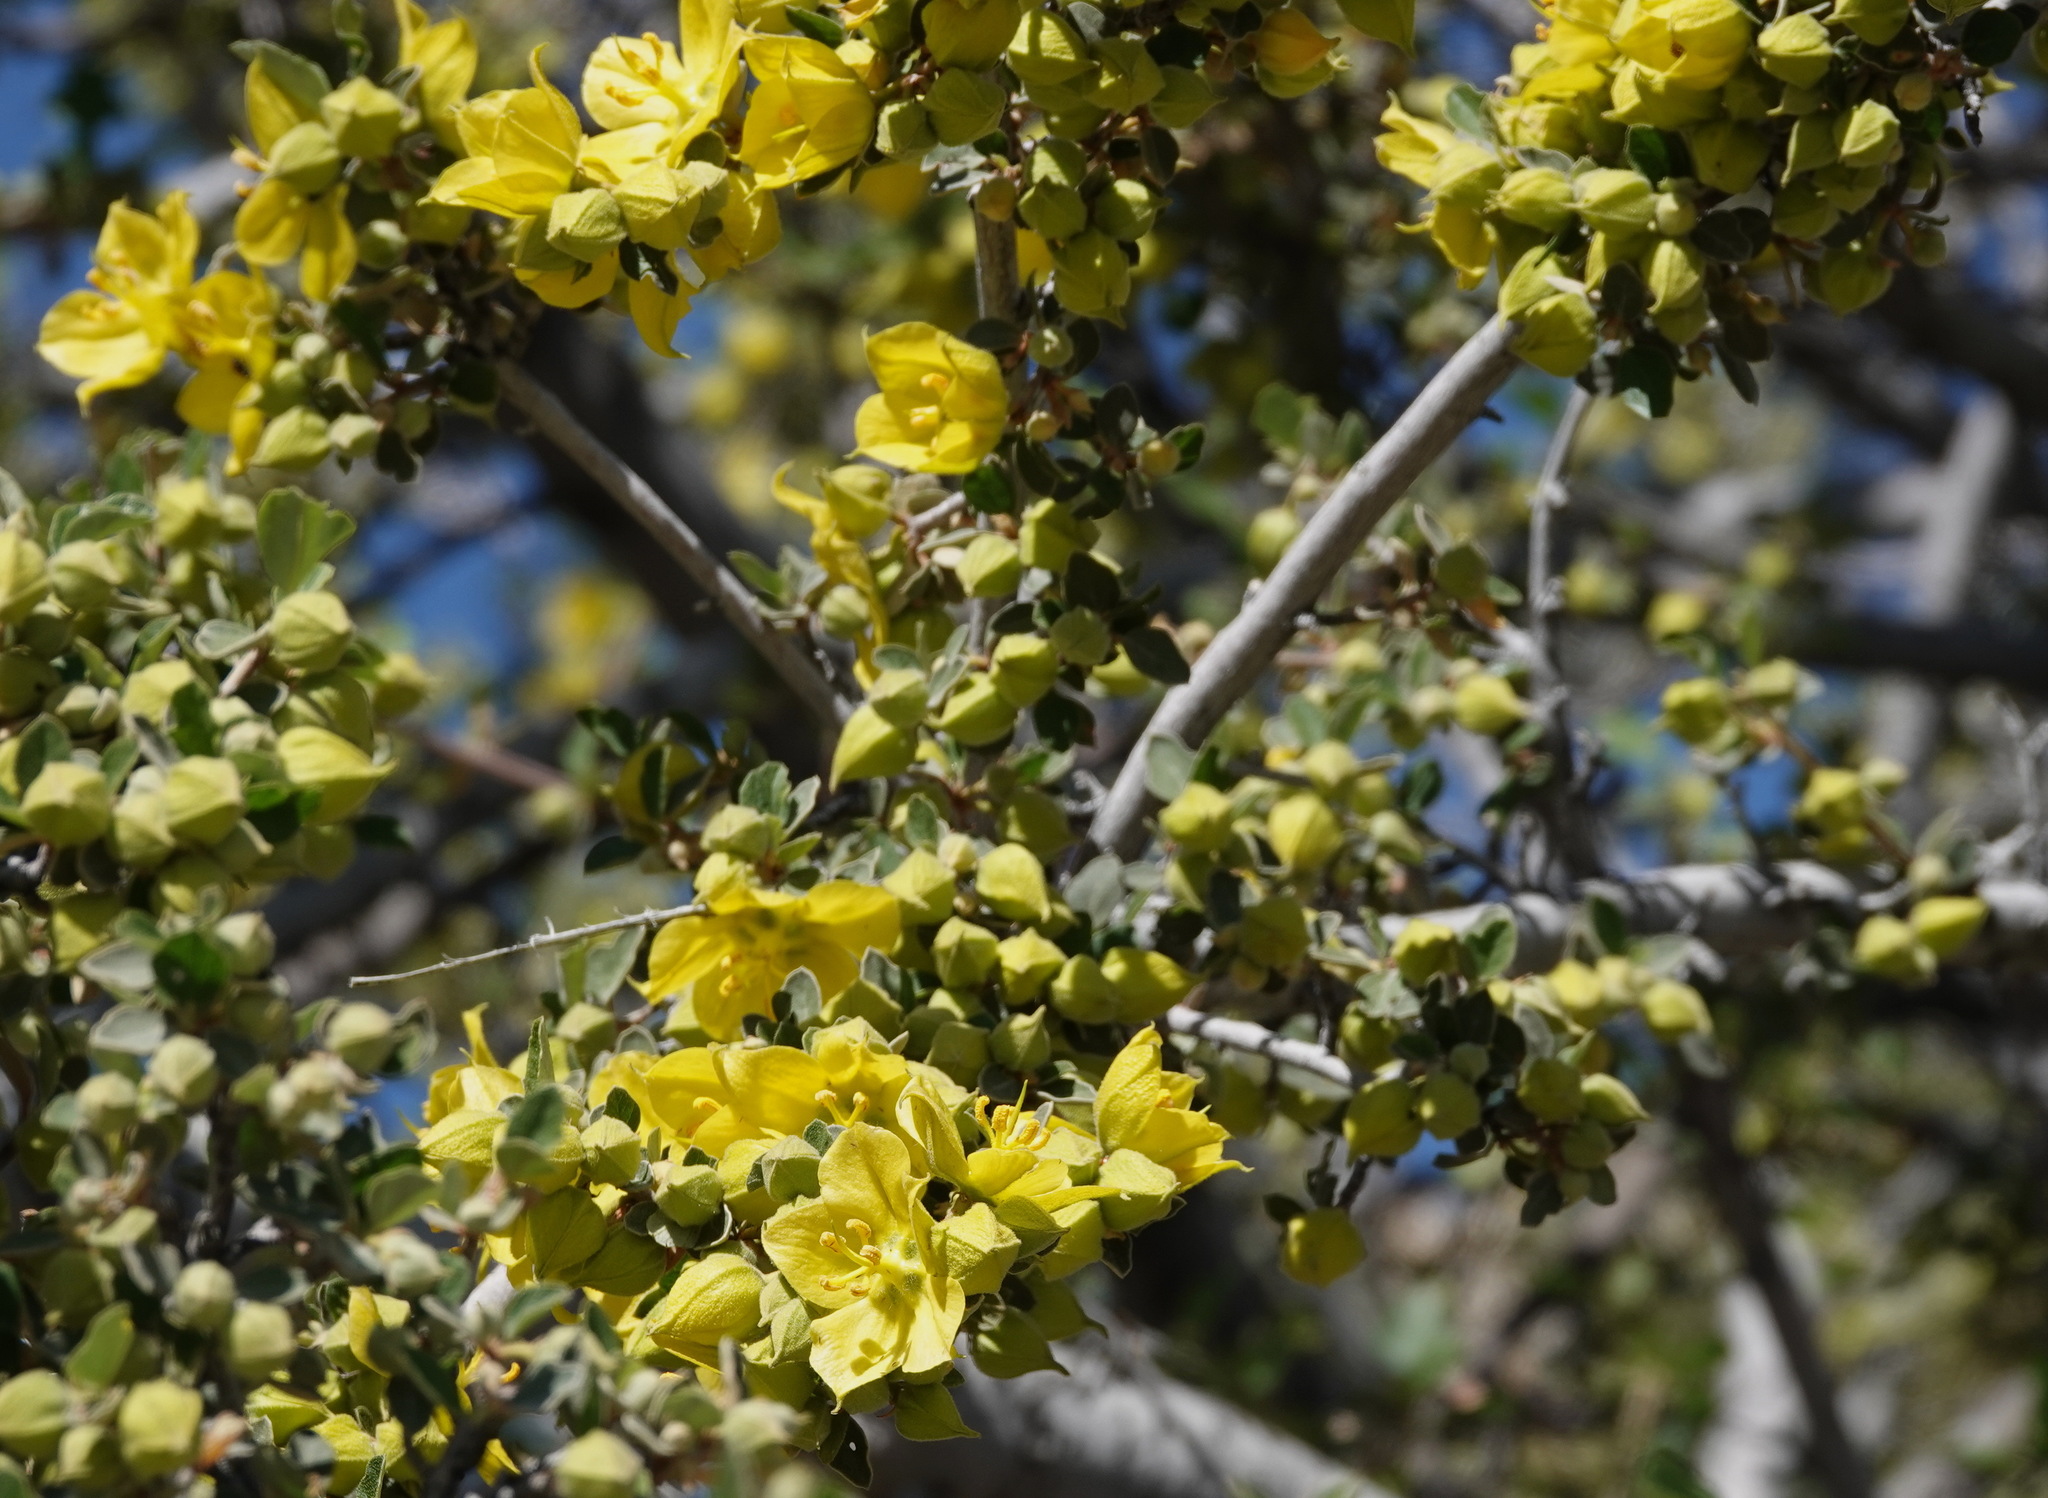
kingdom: Plantae
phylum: Tracheophyta
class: Magnoliopsida
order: Malvales
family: Malvaceae
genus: Fremontodendron
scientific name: Fremontodendron californicum
